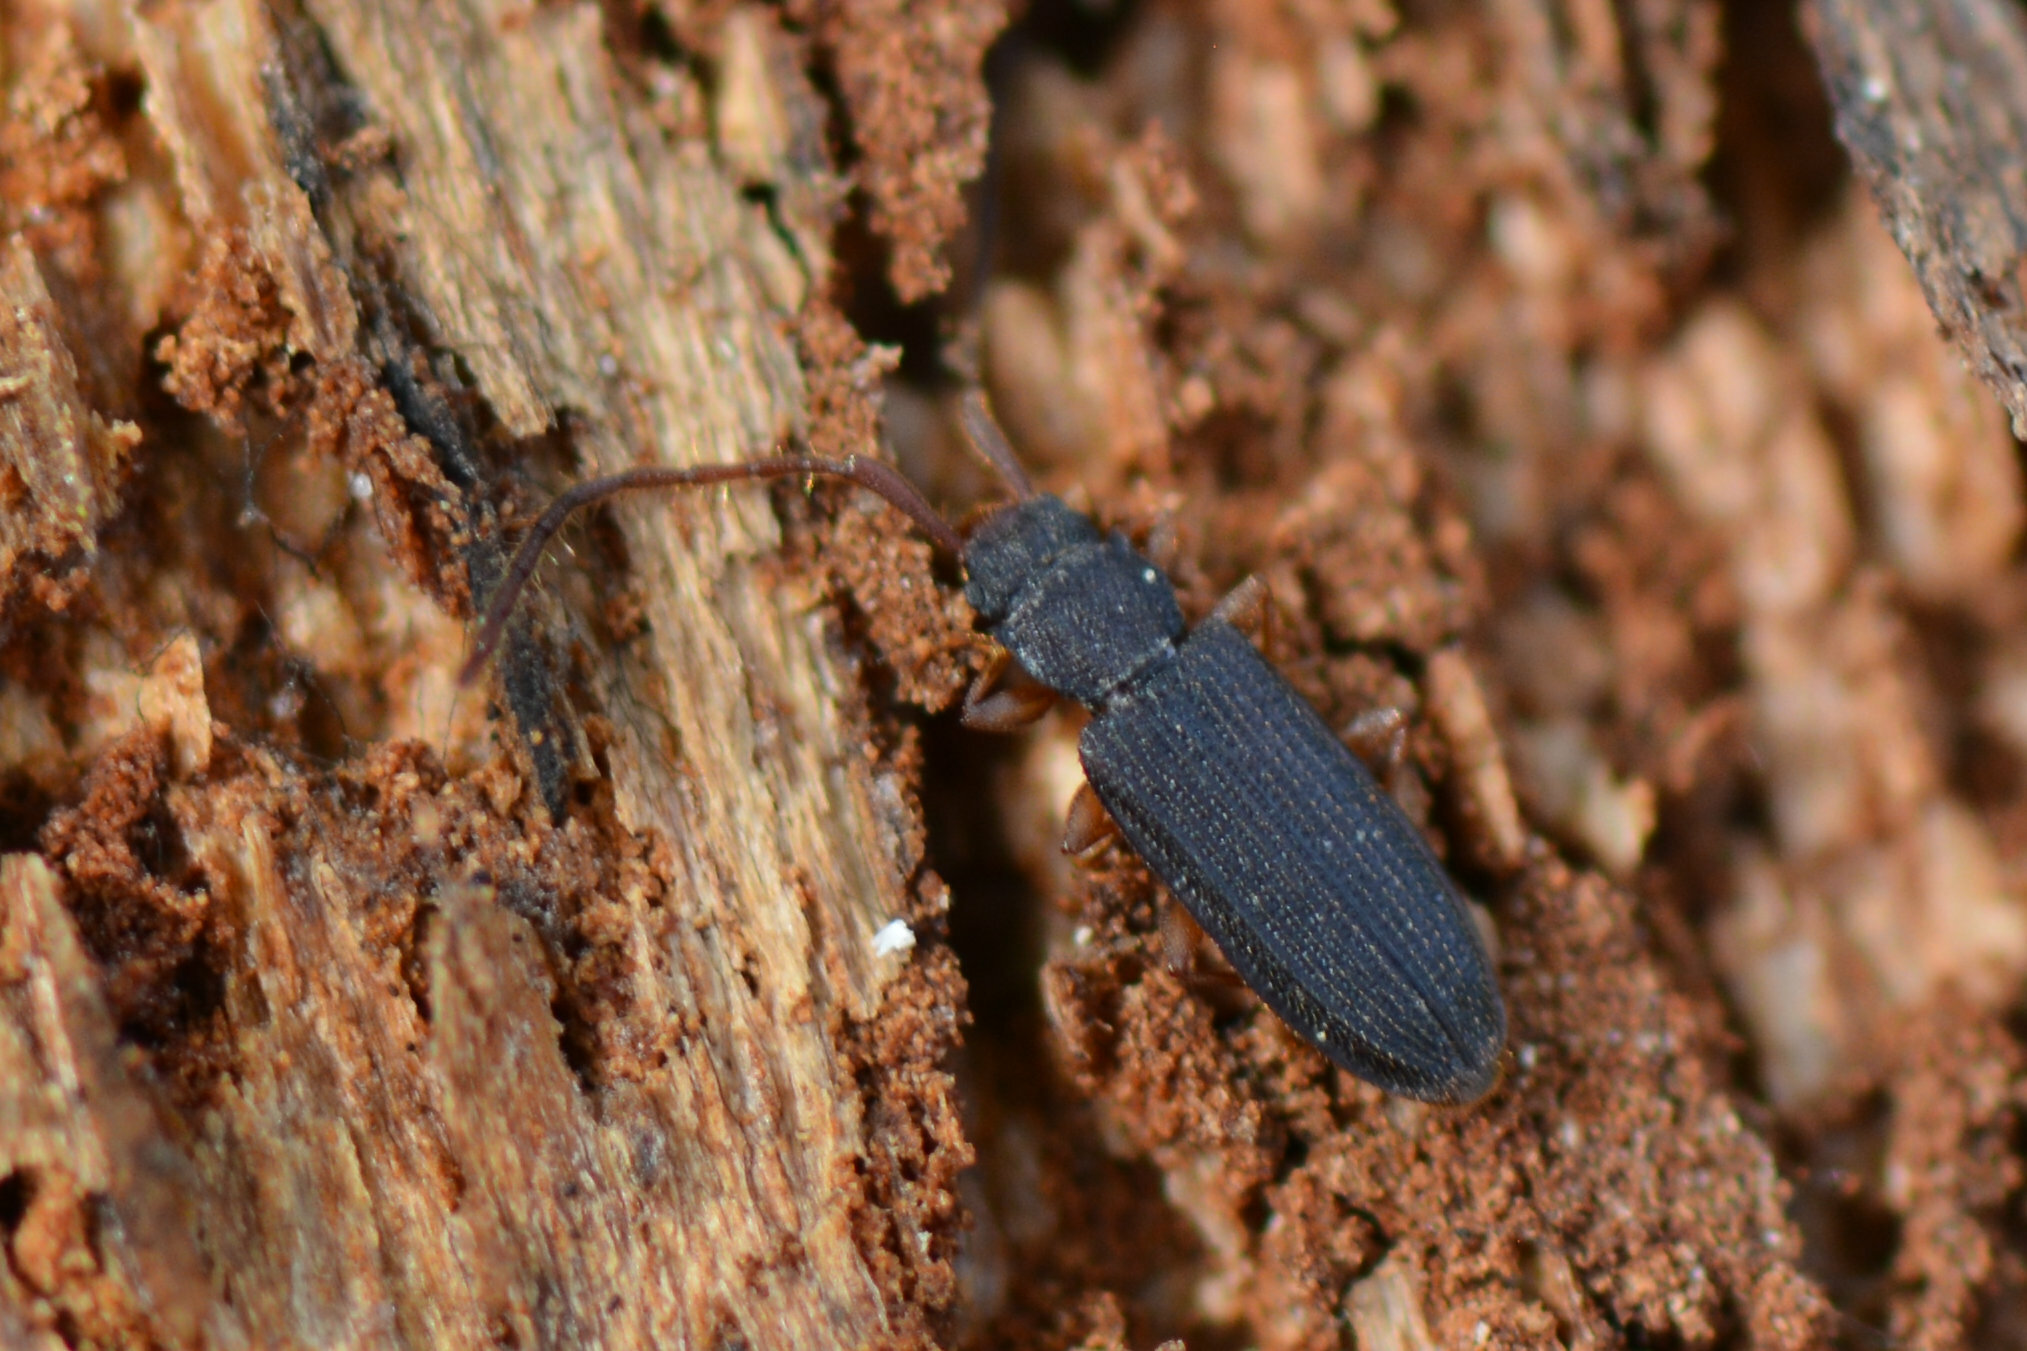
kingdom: Animalia
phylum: Arthropoda
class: Insecta
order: Coleoptera
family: Silvanidae
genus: Uleiota
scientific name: Uleiota planatus
